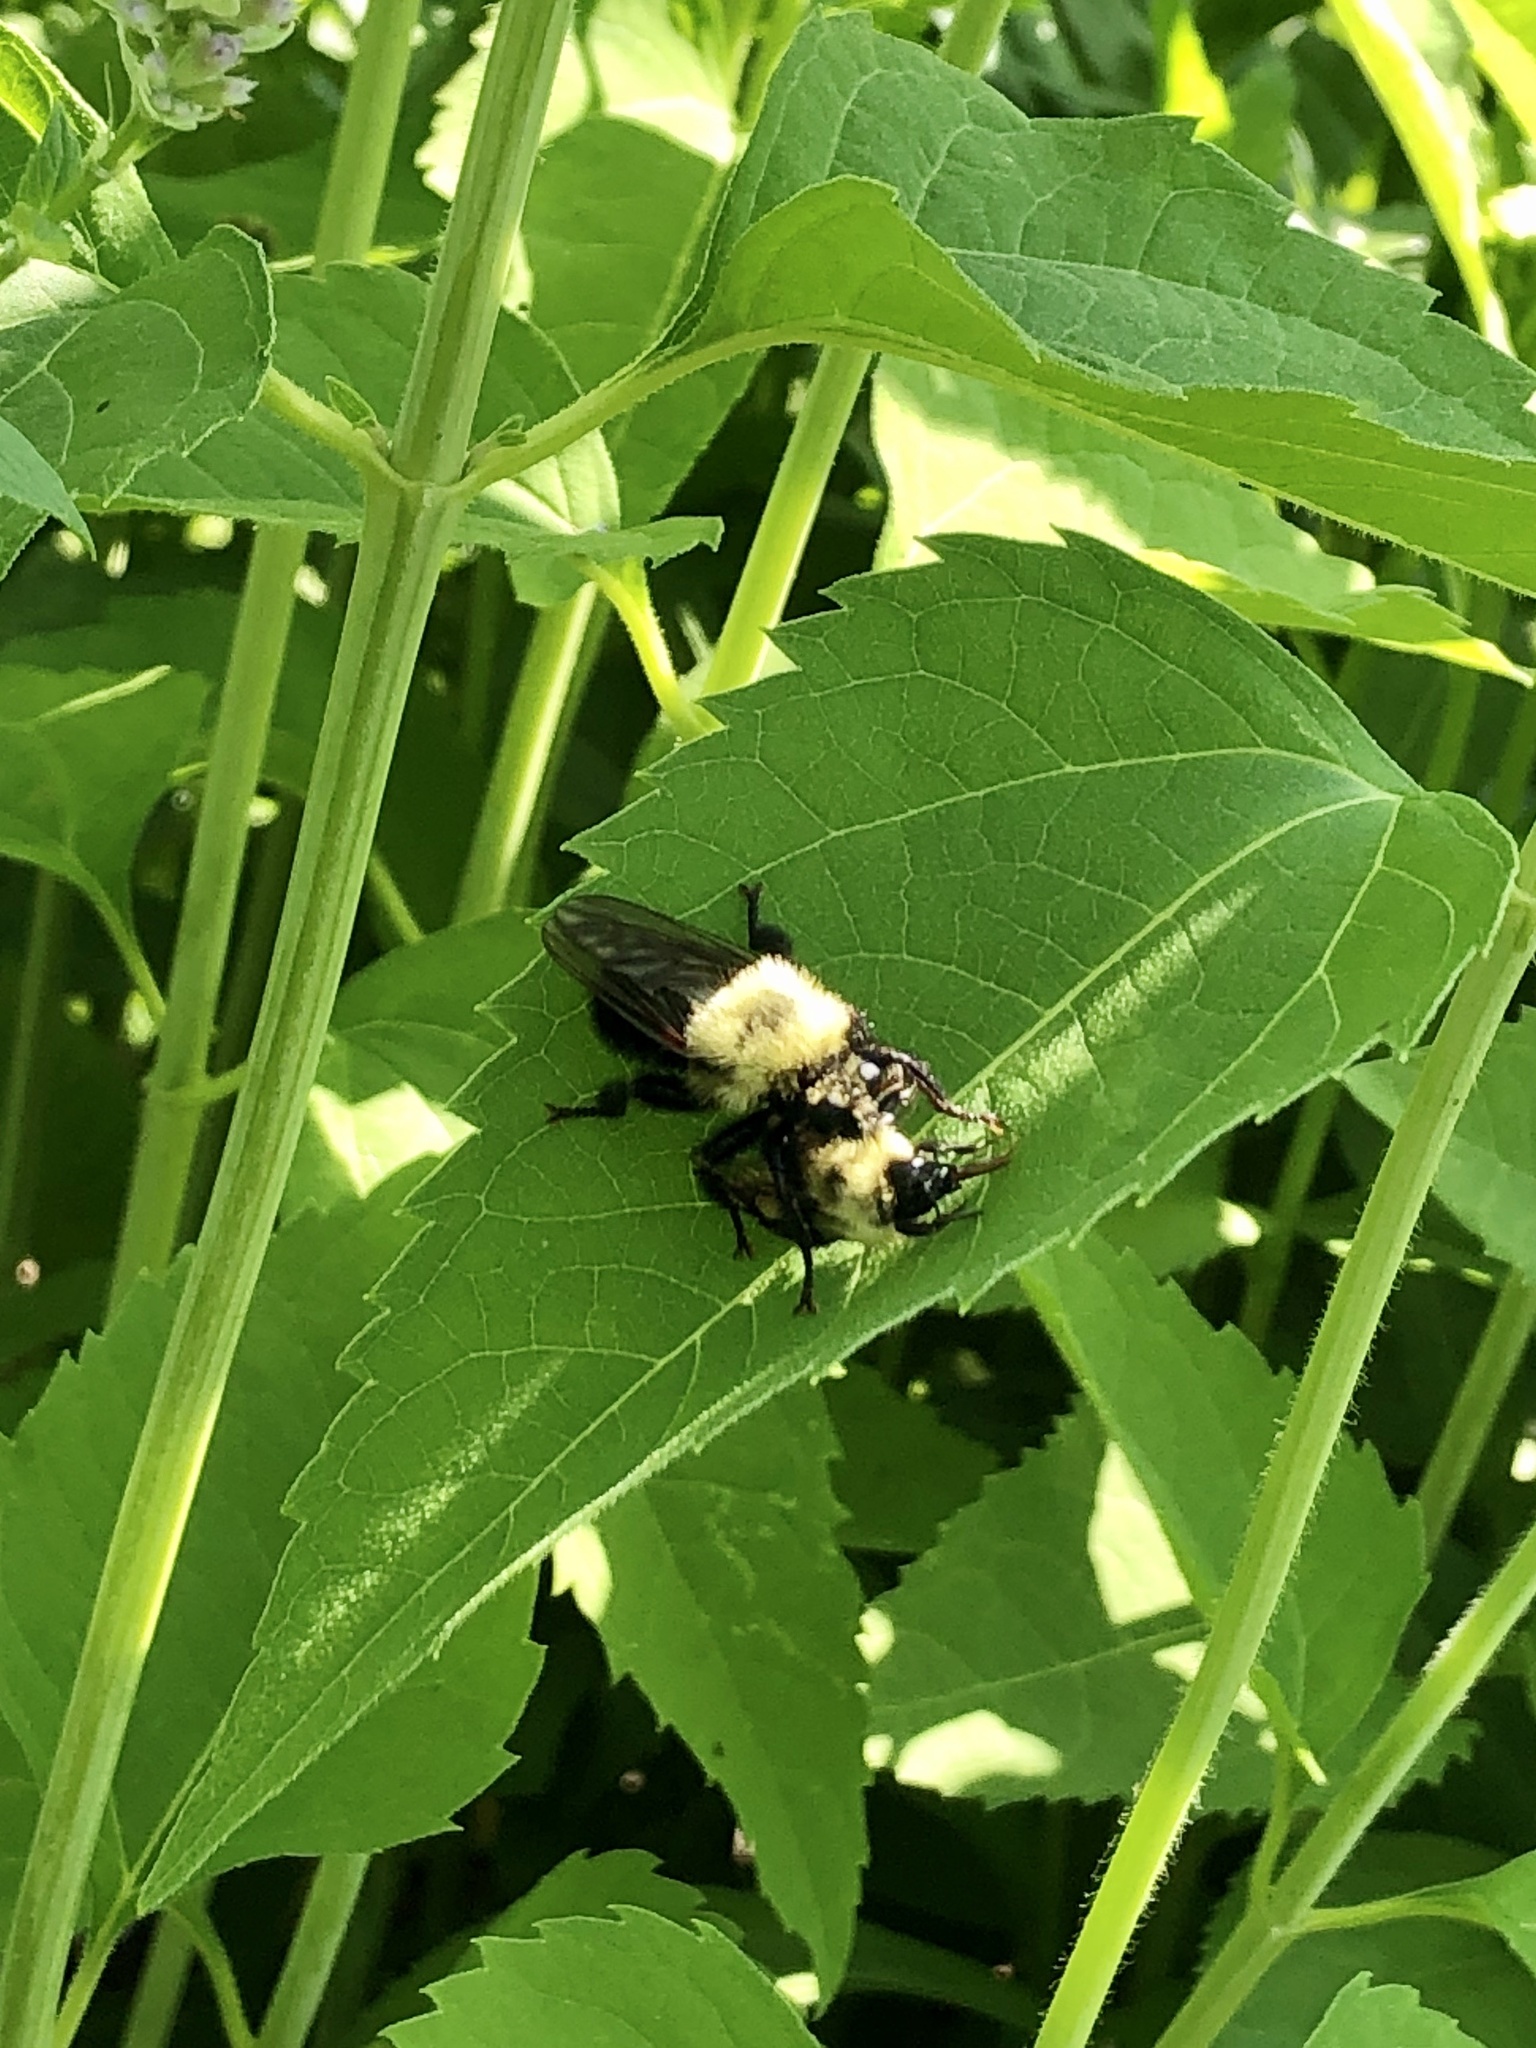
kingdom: Animalia
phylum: Arthropoda
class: Insecta
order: Diptera
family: Asilidae
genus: Laphria
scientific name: Laphria thoracica
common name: Bumble bee mimic robber fly
